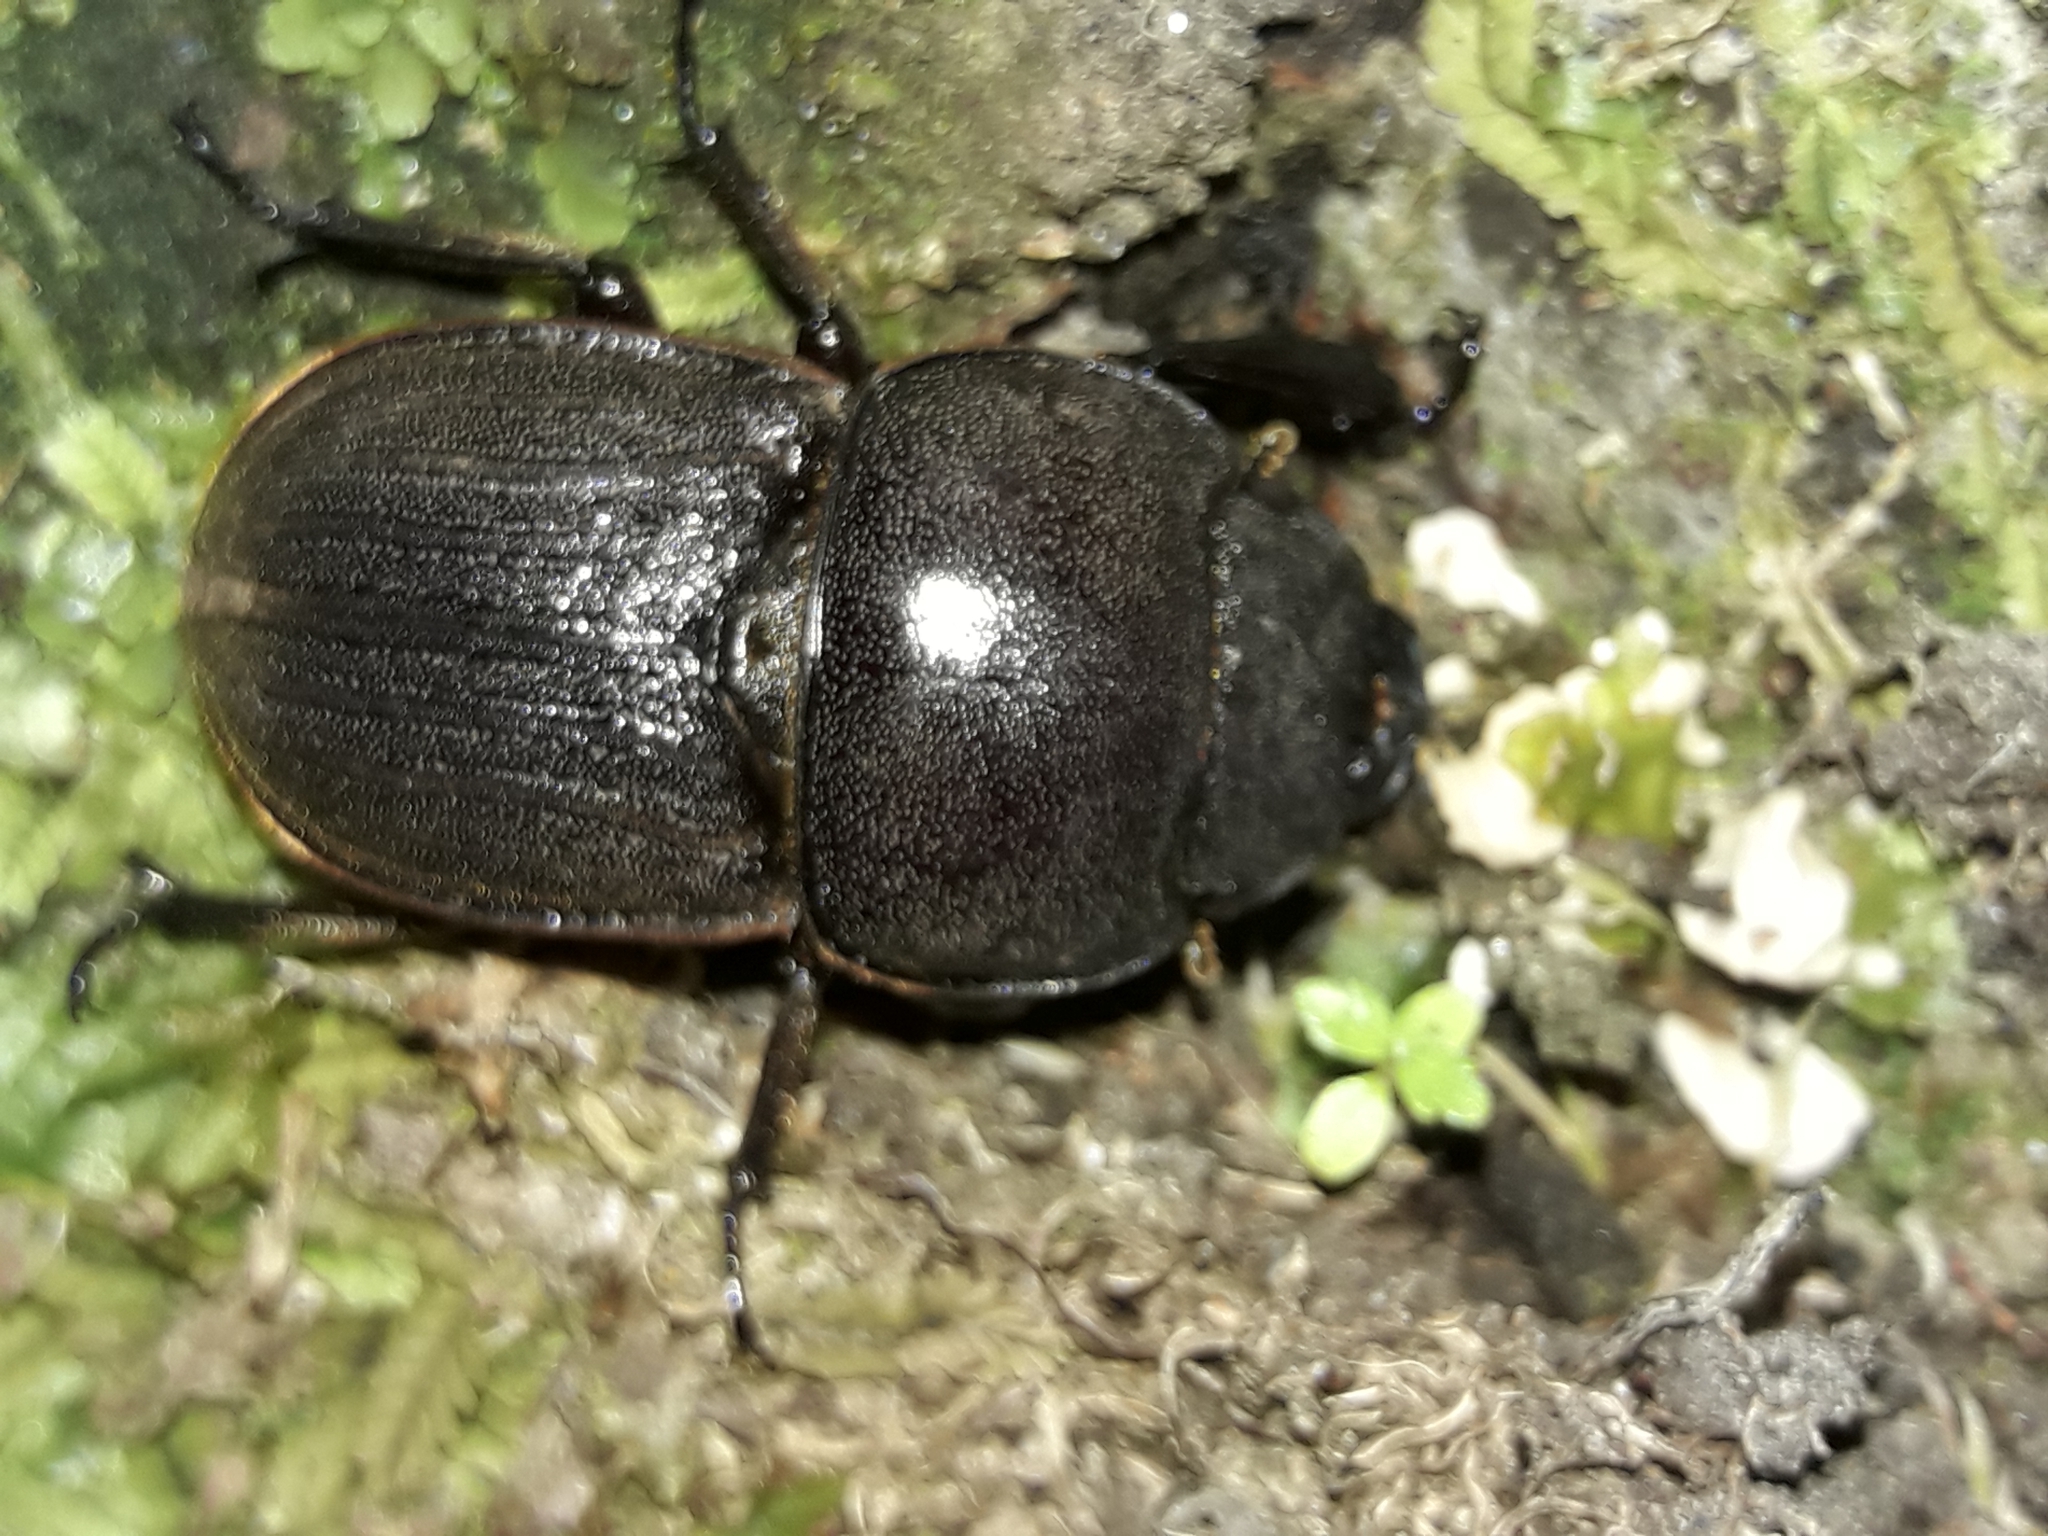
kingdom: Animalia
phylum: Arthropoda
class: Insecta
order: Coleoptera
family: Lucanidae
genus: Geodorcus
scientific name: Geodorcus helmsi
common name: Helm's stag beetle
